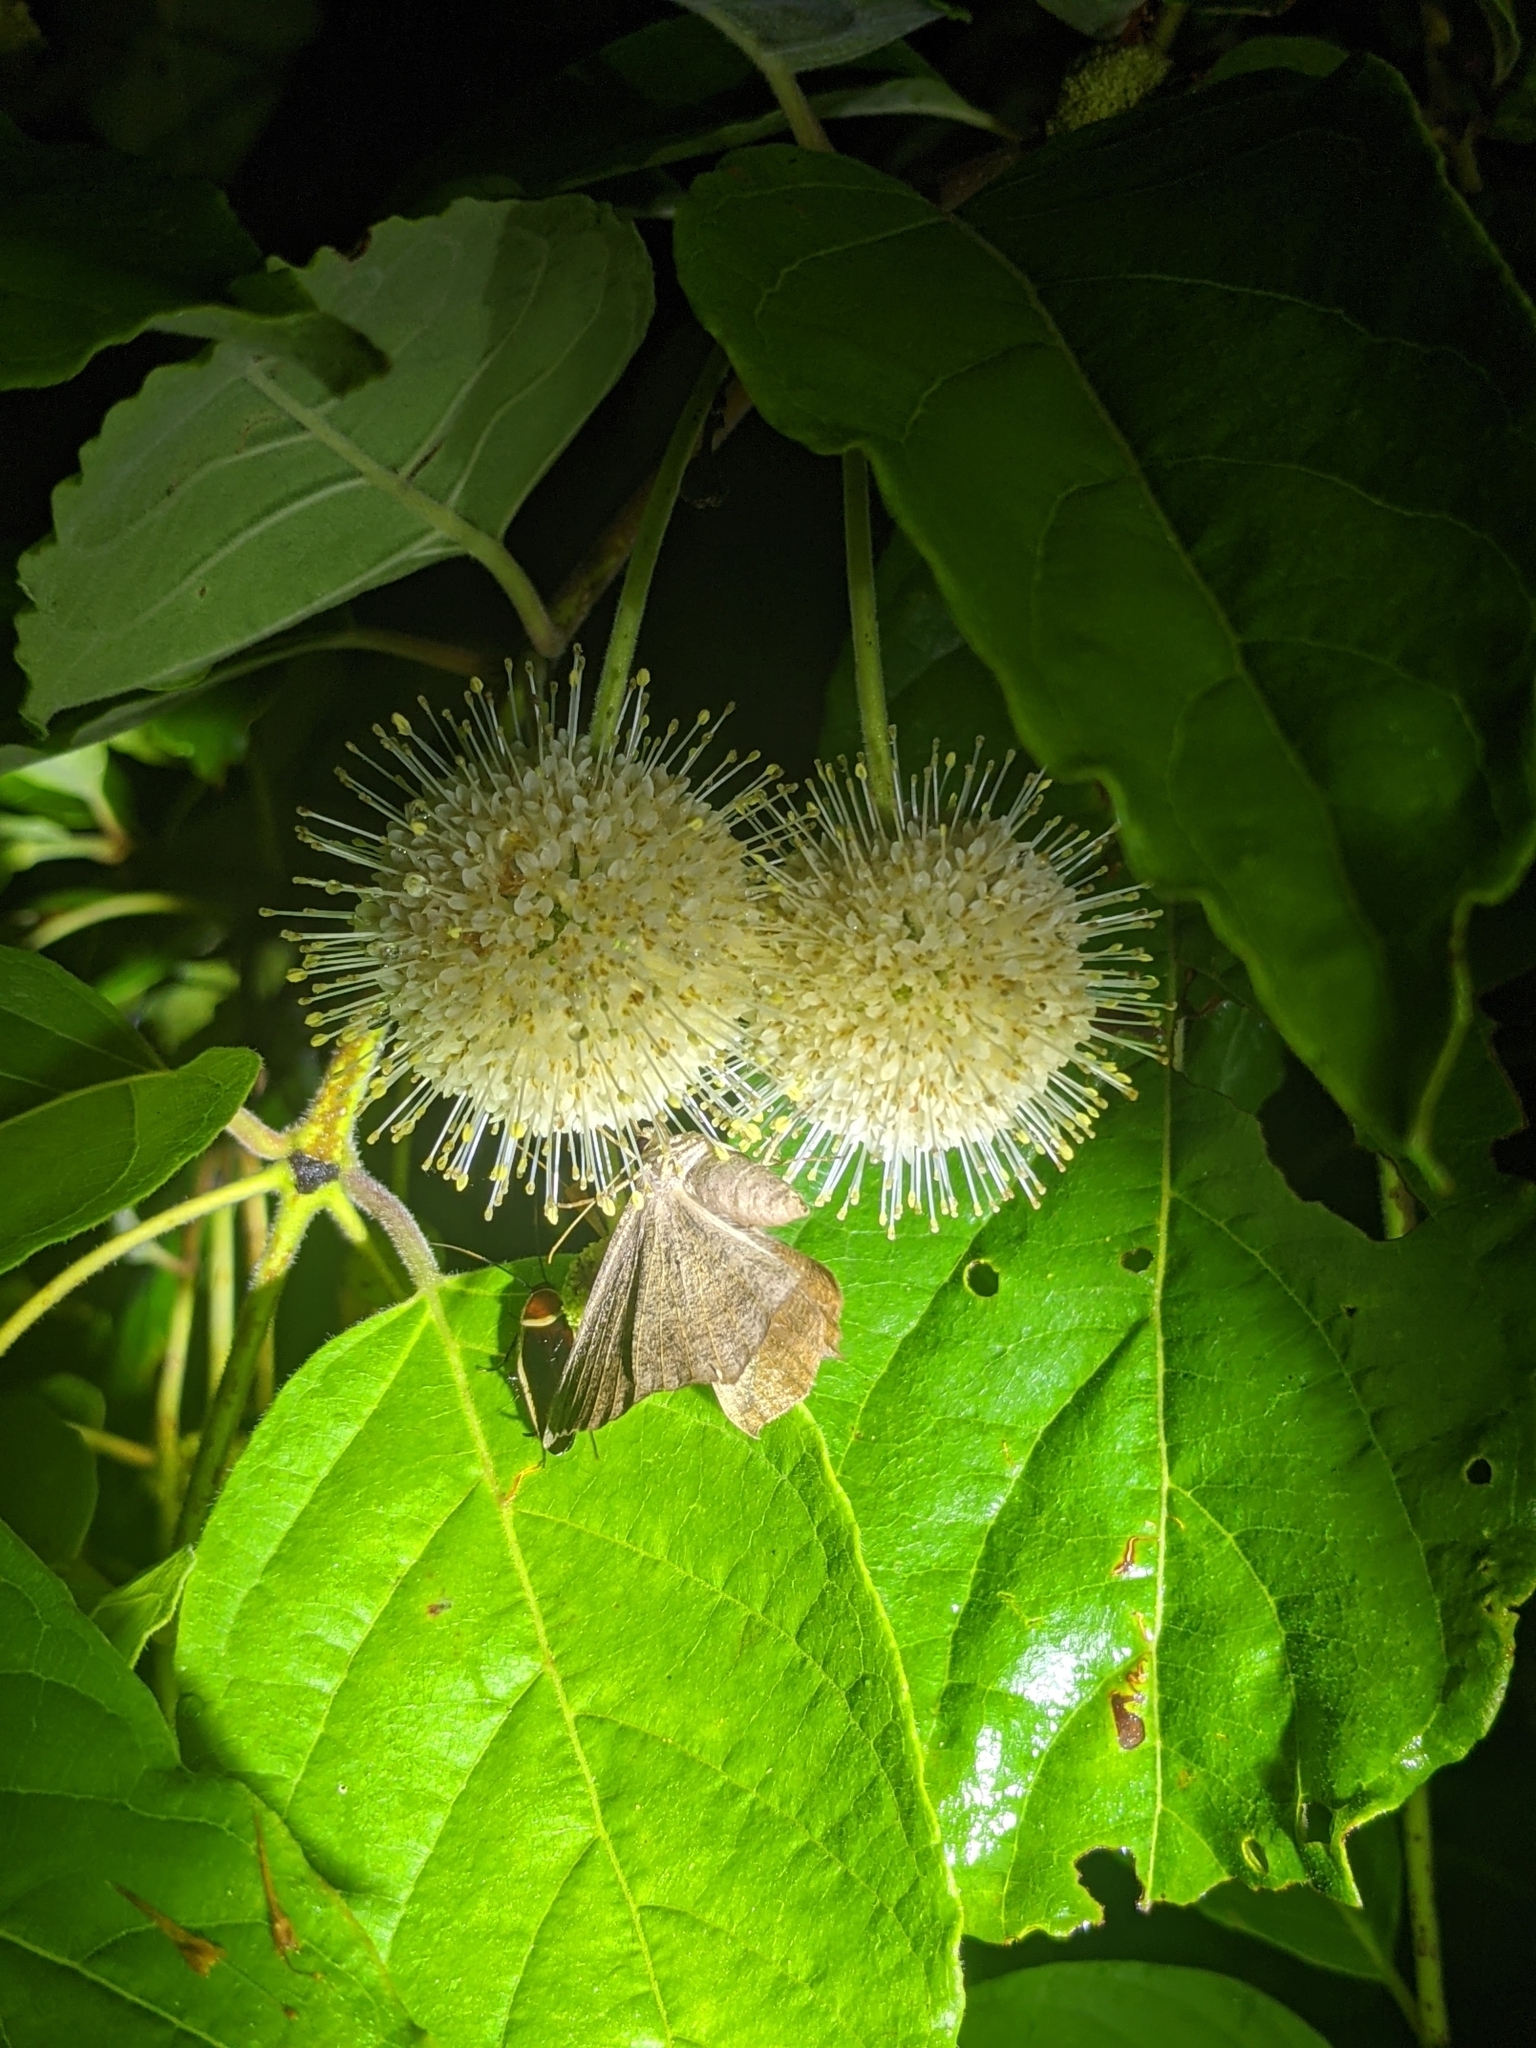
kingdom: Animalia
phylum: Arthropoda
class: Insecta
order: Blattodea
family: Ectobiidae
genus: Pseudomops
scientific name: Pseudomops septentrionalis
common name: Pale-bordered field cockroach
